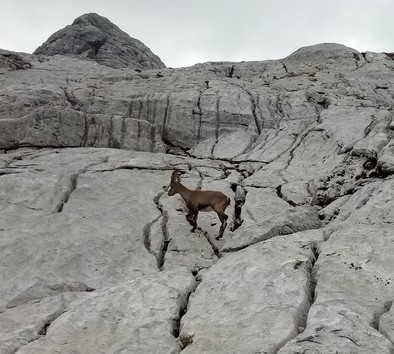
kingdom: Animalia
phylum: Chordata
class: Mammalia
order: Artiodactyla
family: Bovidae
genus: Capra
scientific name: Capra ibex
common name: Alpine ibex
